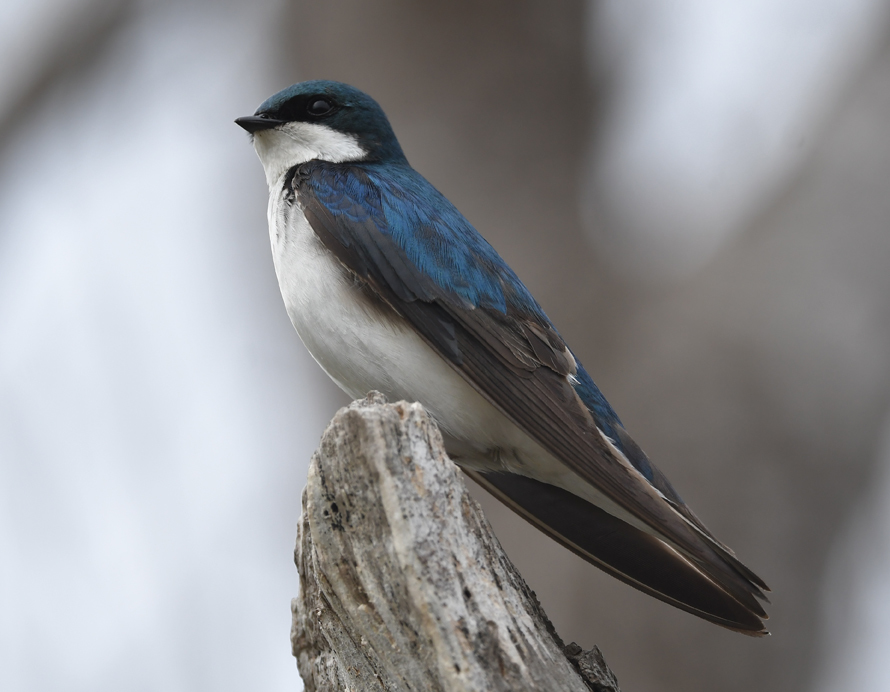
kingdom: Animalia
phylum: Chordata
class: Aves
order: Passeriformes
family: Hirundinidae
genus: Tachycineta
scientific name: Tachycineta bicolor
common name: Tree swallow
